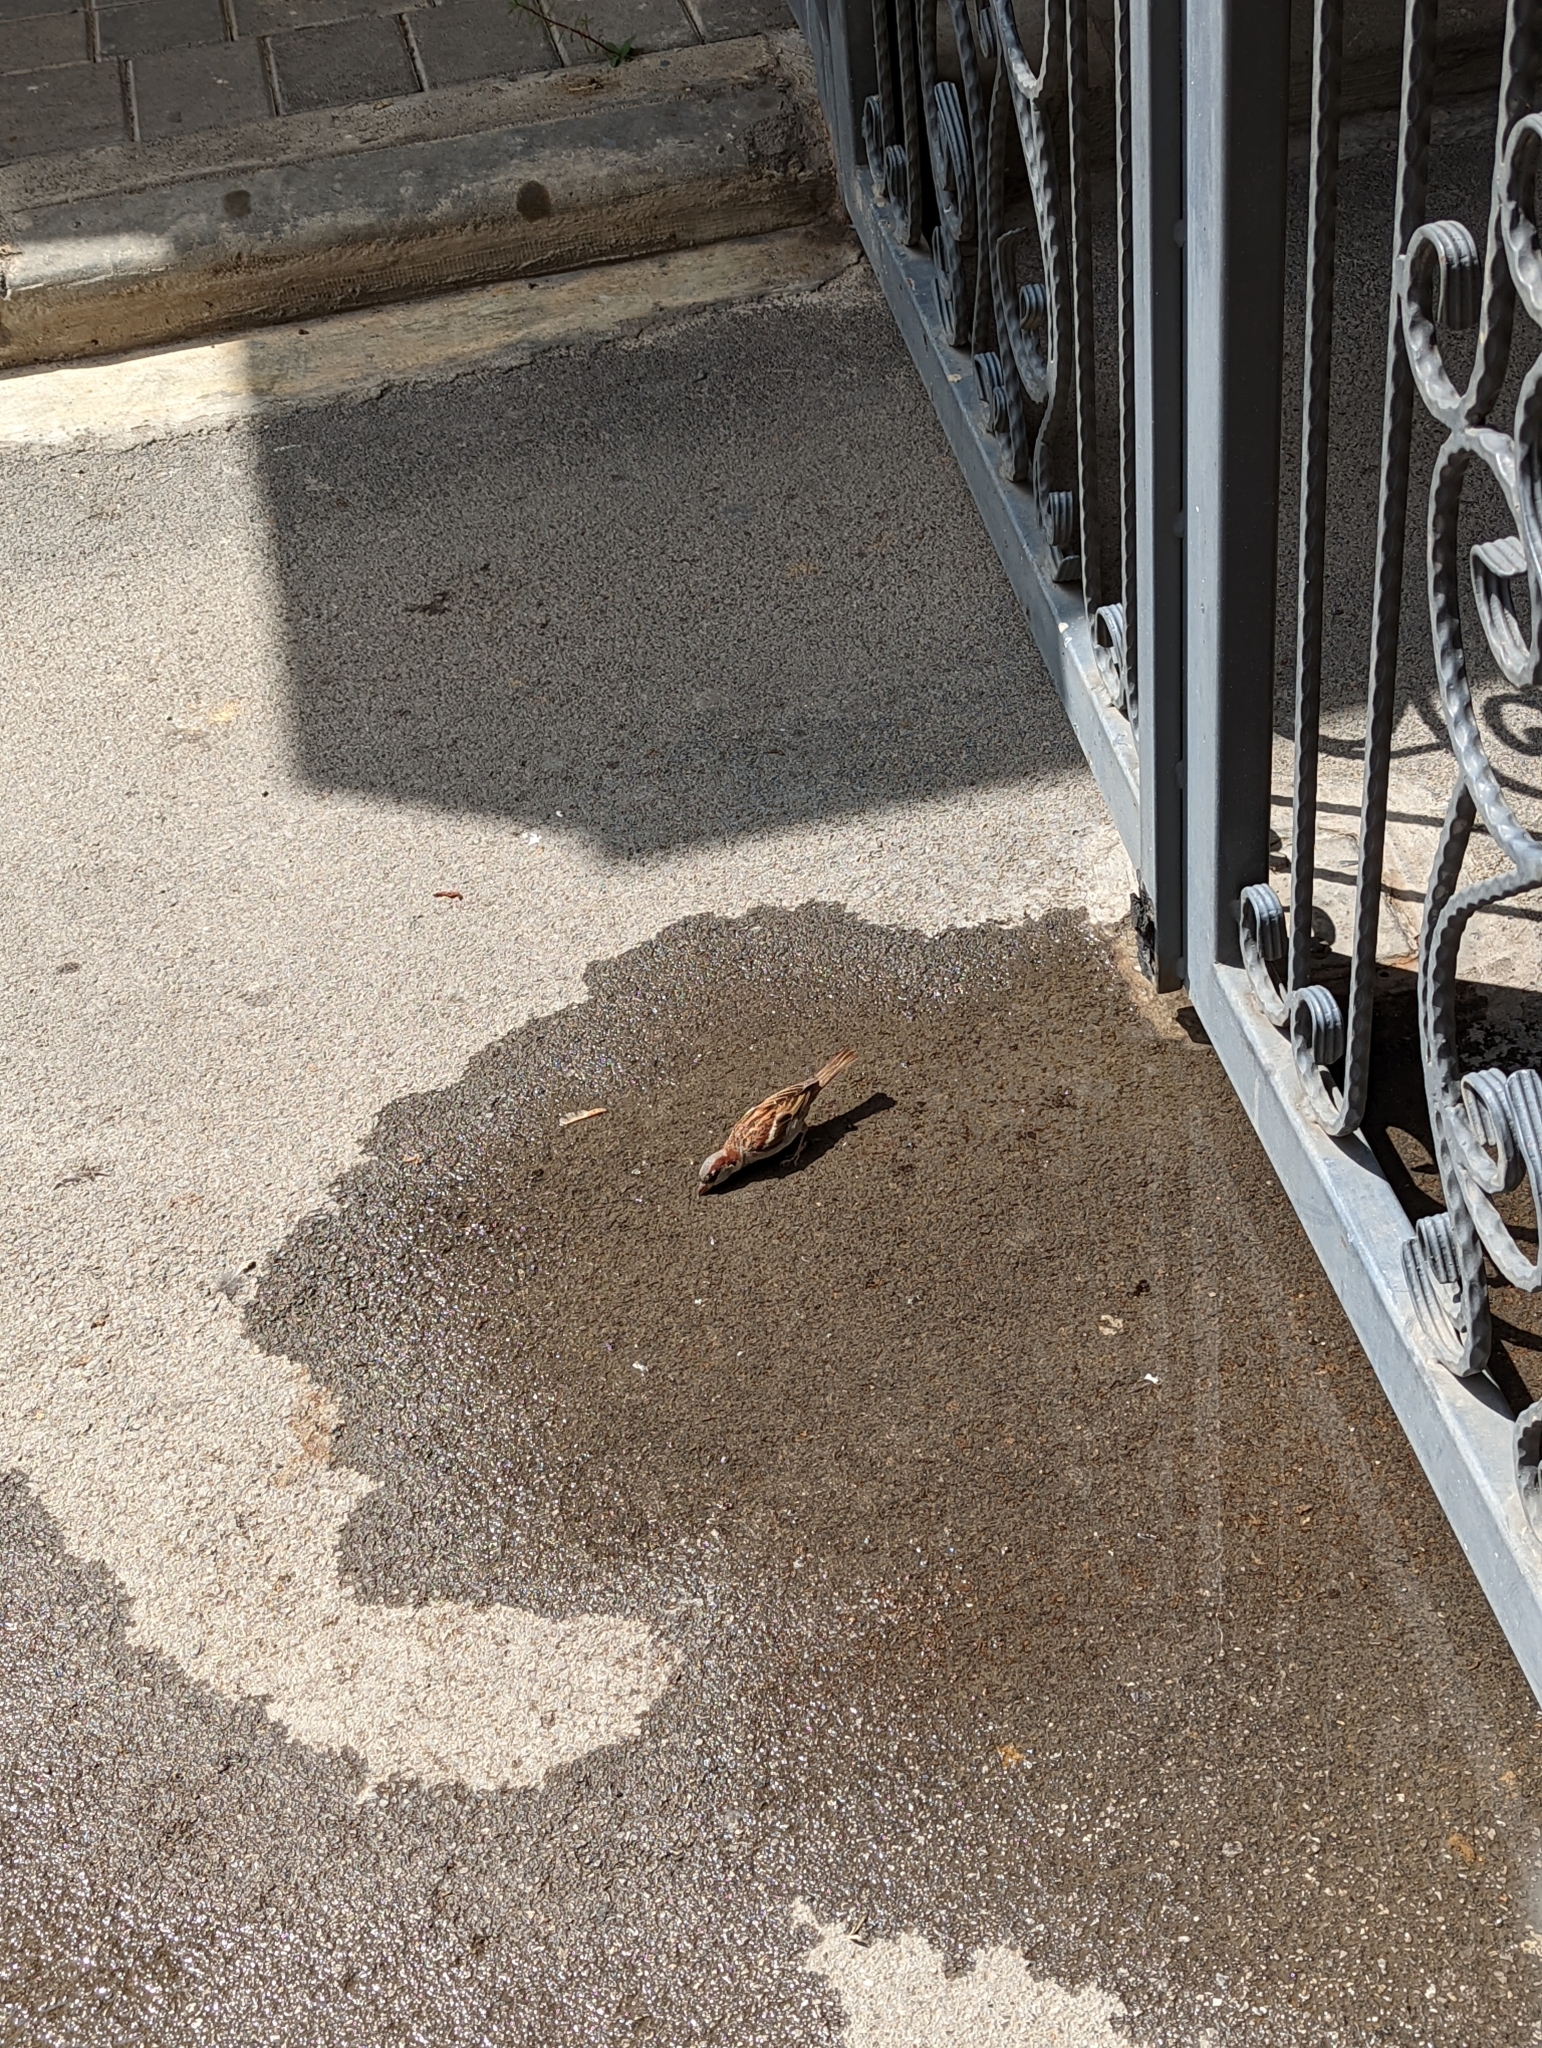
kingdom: Animalia
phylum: Chordata
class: Aves
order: Passeriformes
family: Passeridae
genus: Passer
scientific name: Passer domesticus
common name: House sparrow
